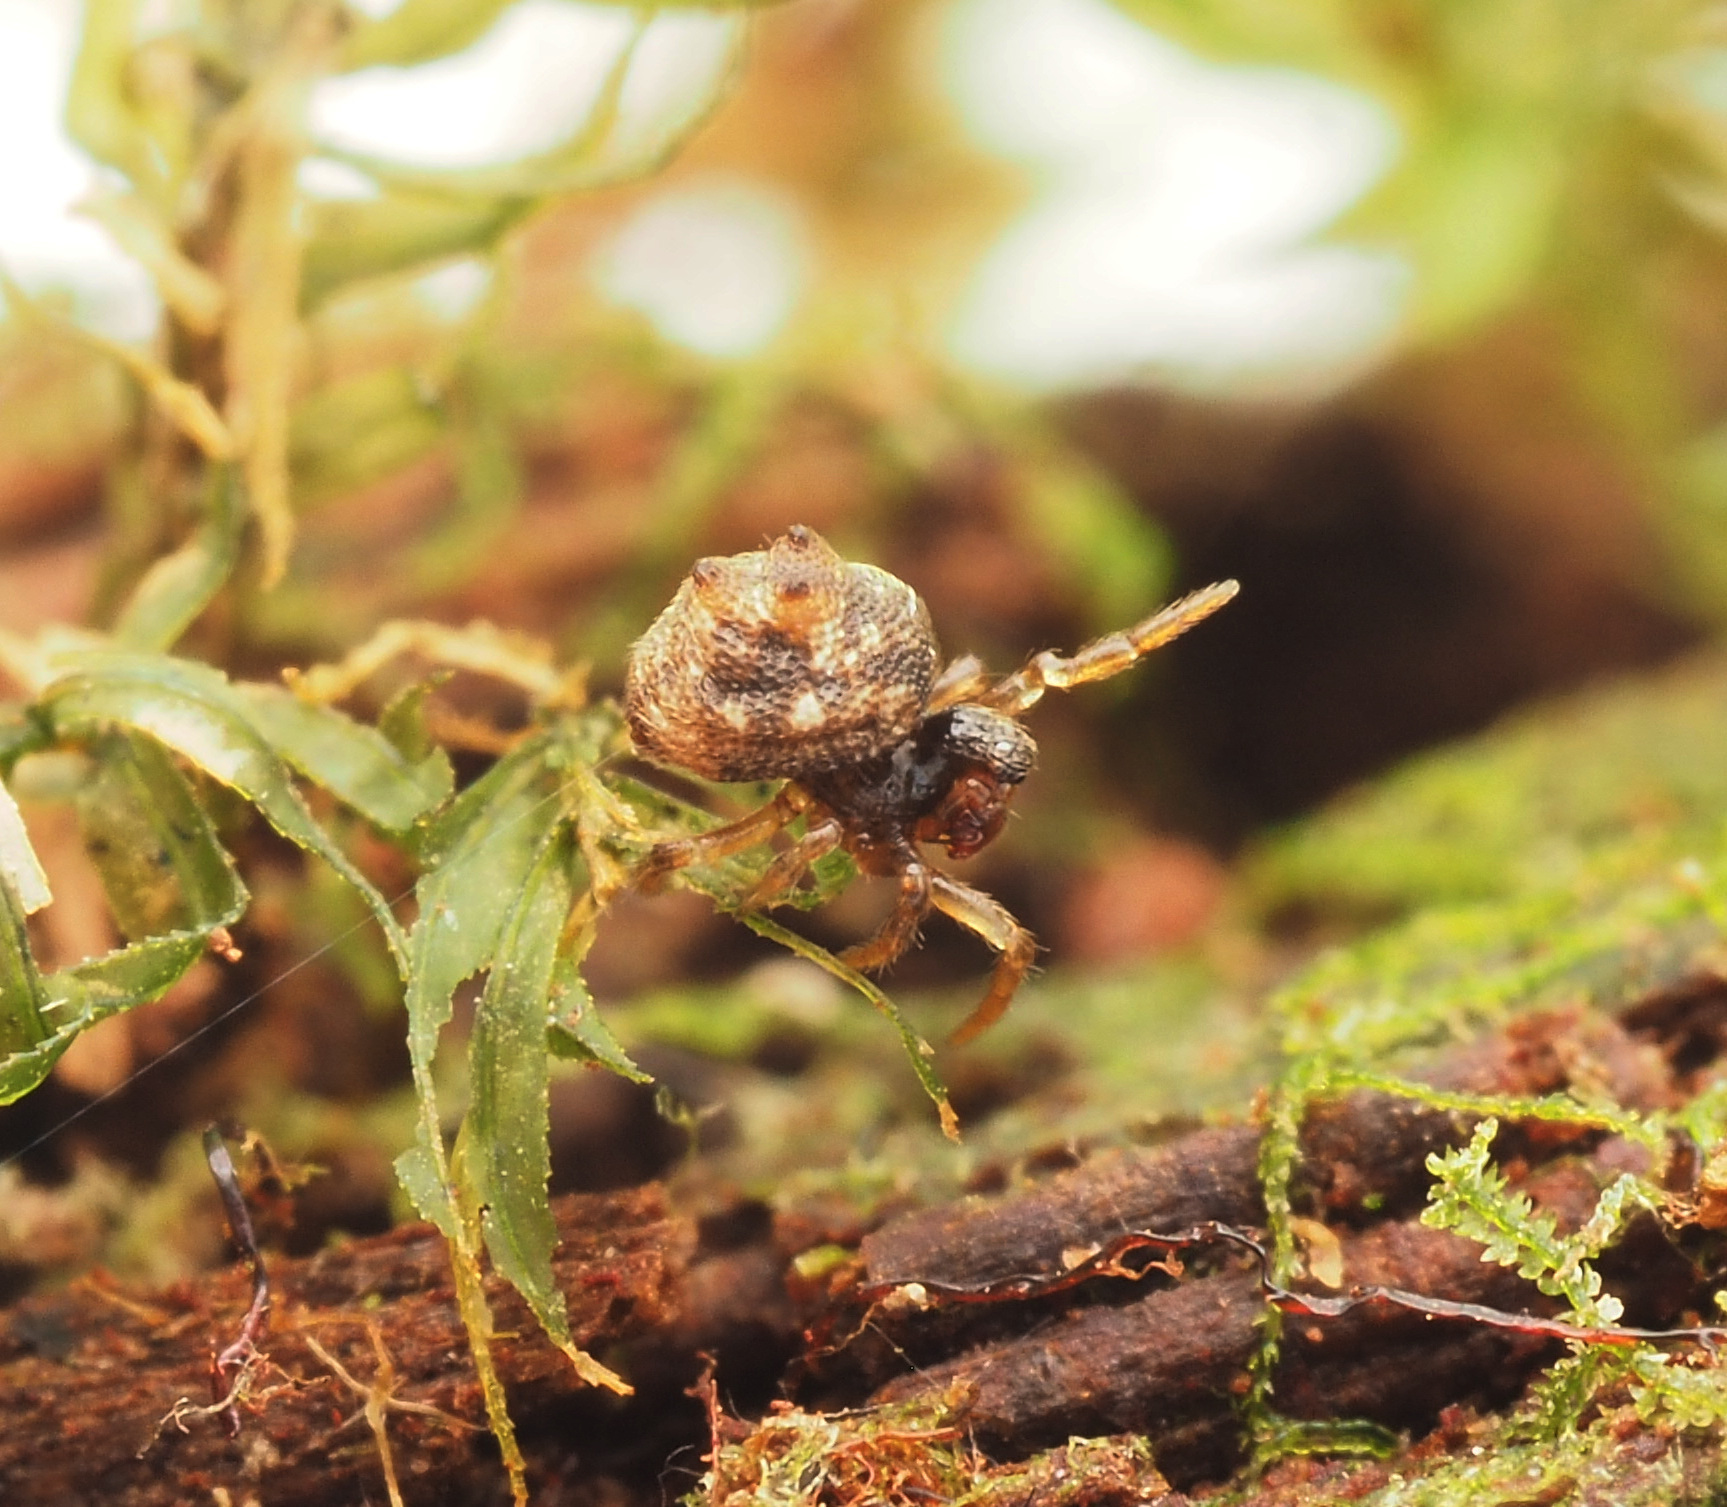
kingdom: Animalia
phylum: Arthropoda
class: Arachnida
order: Araneae
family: Theridiidae
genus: Phoroncidia
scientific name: Phoroncidia trituberculata
